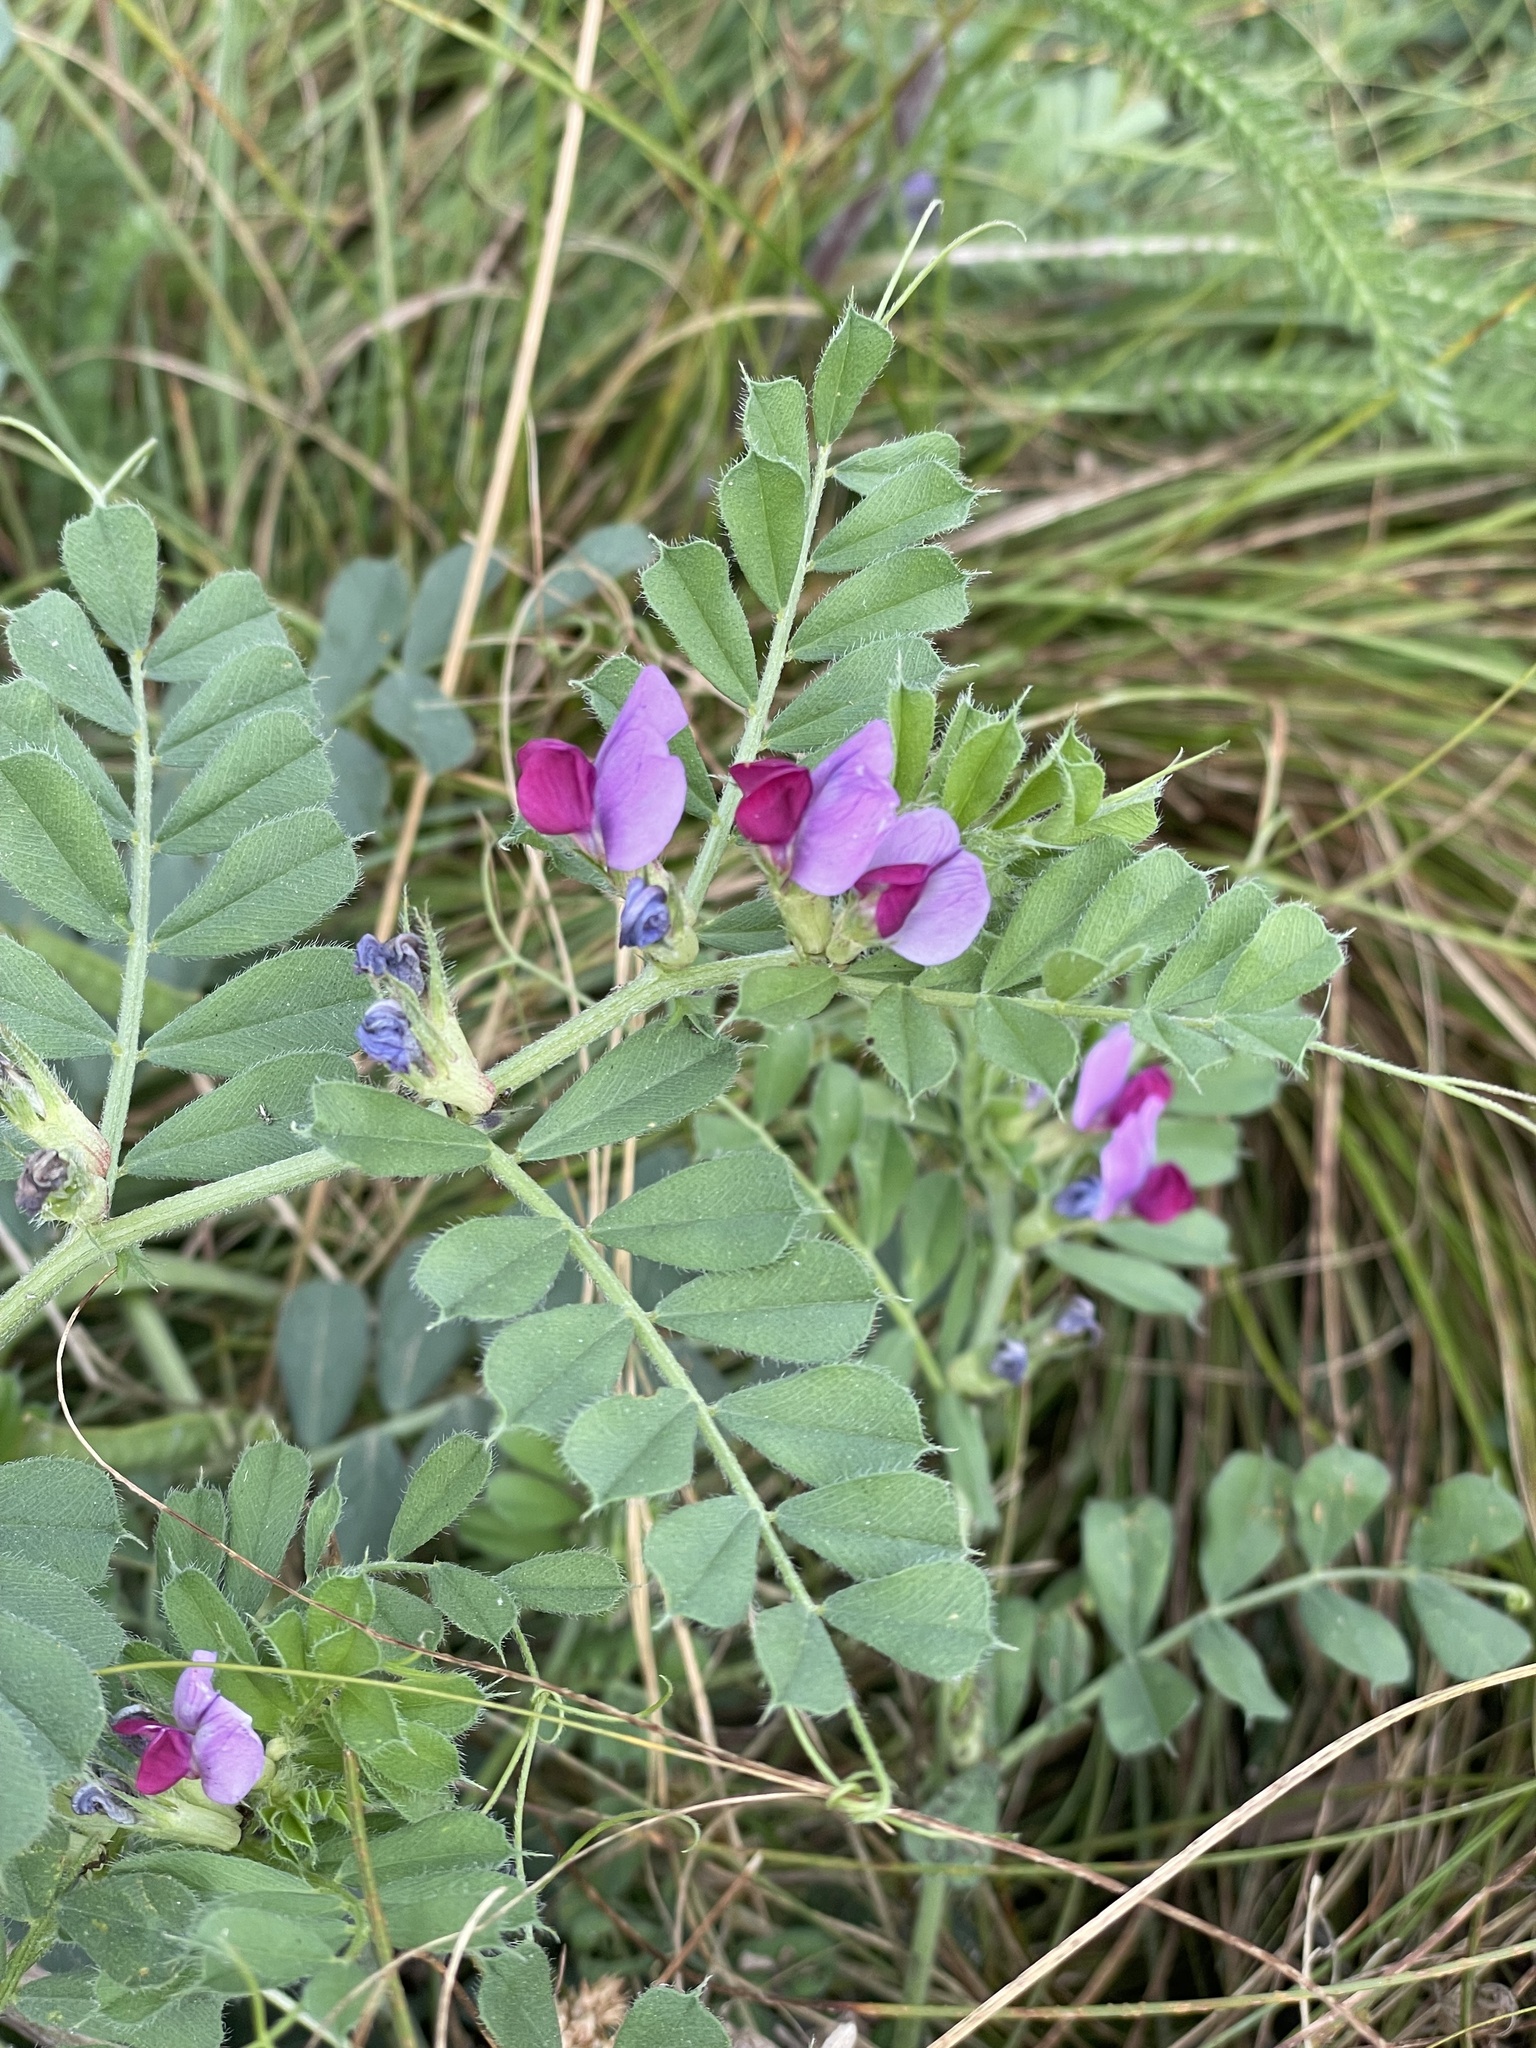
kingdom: Plantae
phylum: Tracheophyta
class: Magnoliopsida
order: Fabales
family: Fabaceae
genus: Vicia
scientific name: Vicia sativa
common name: Garden vetch
